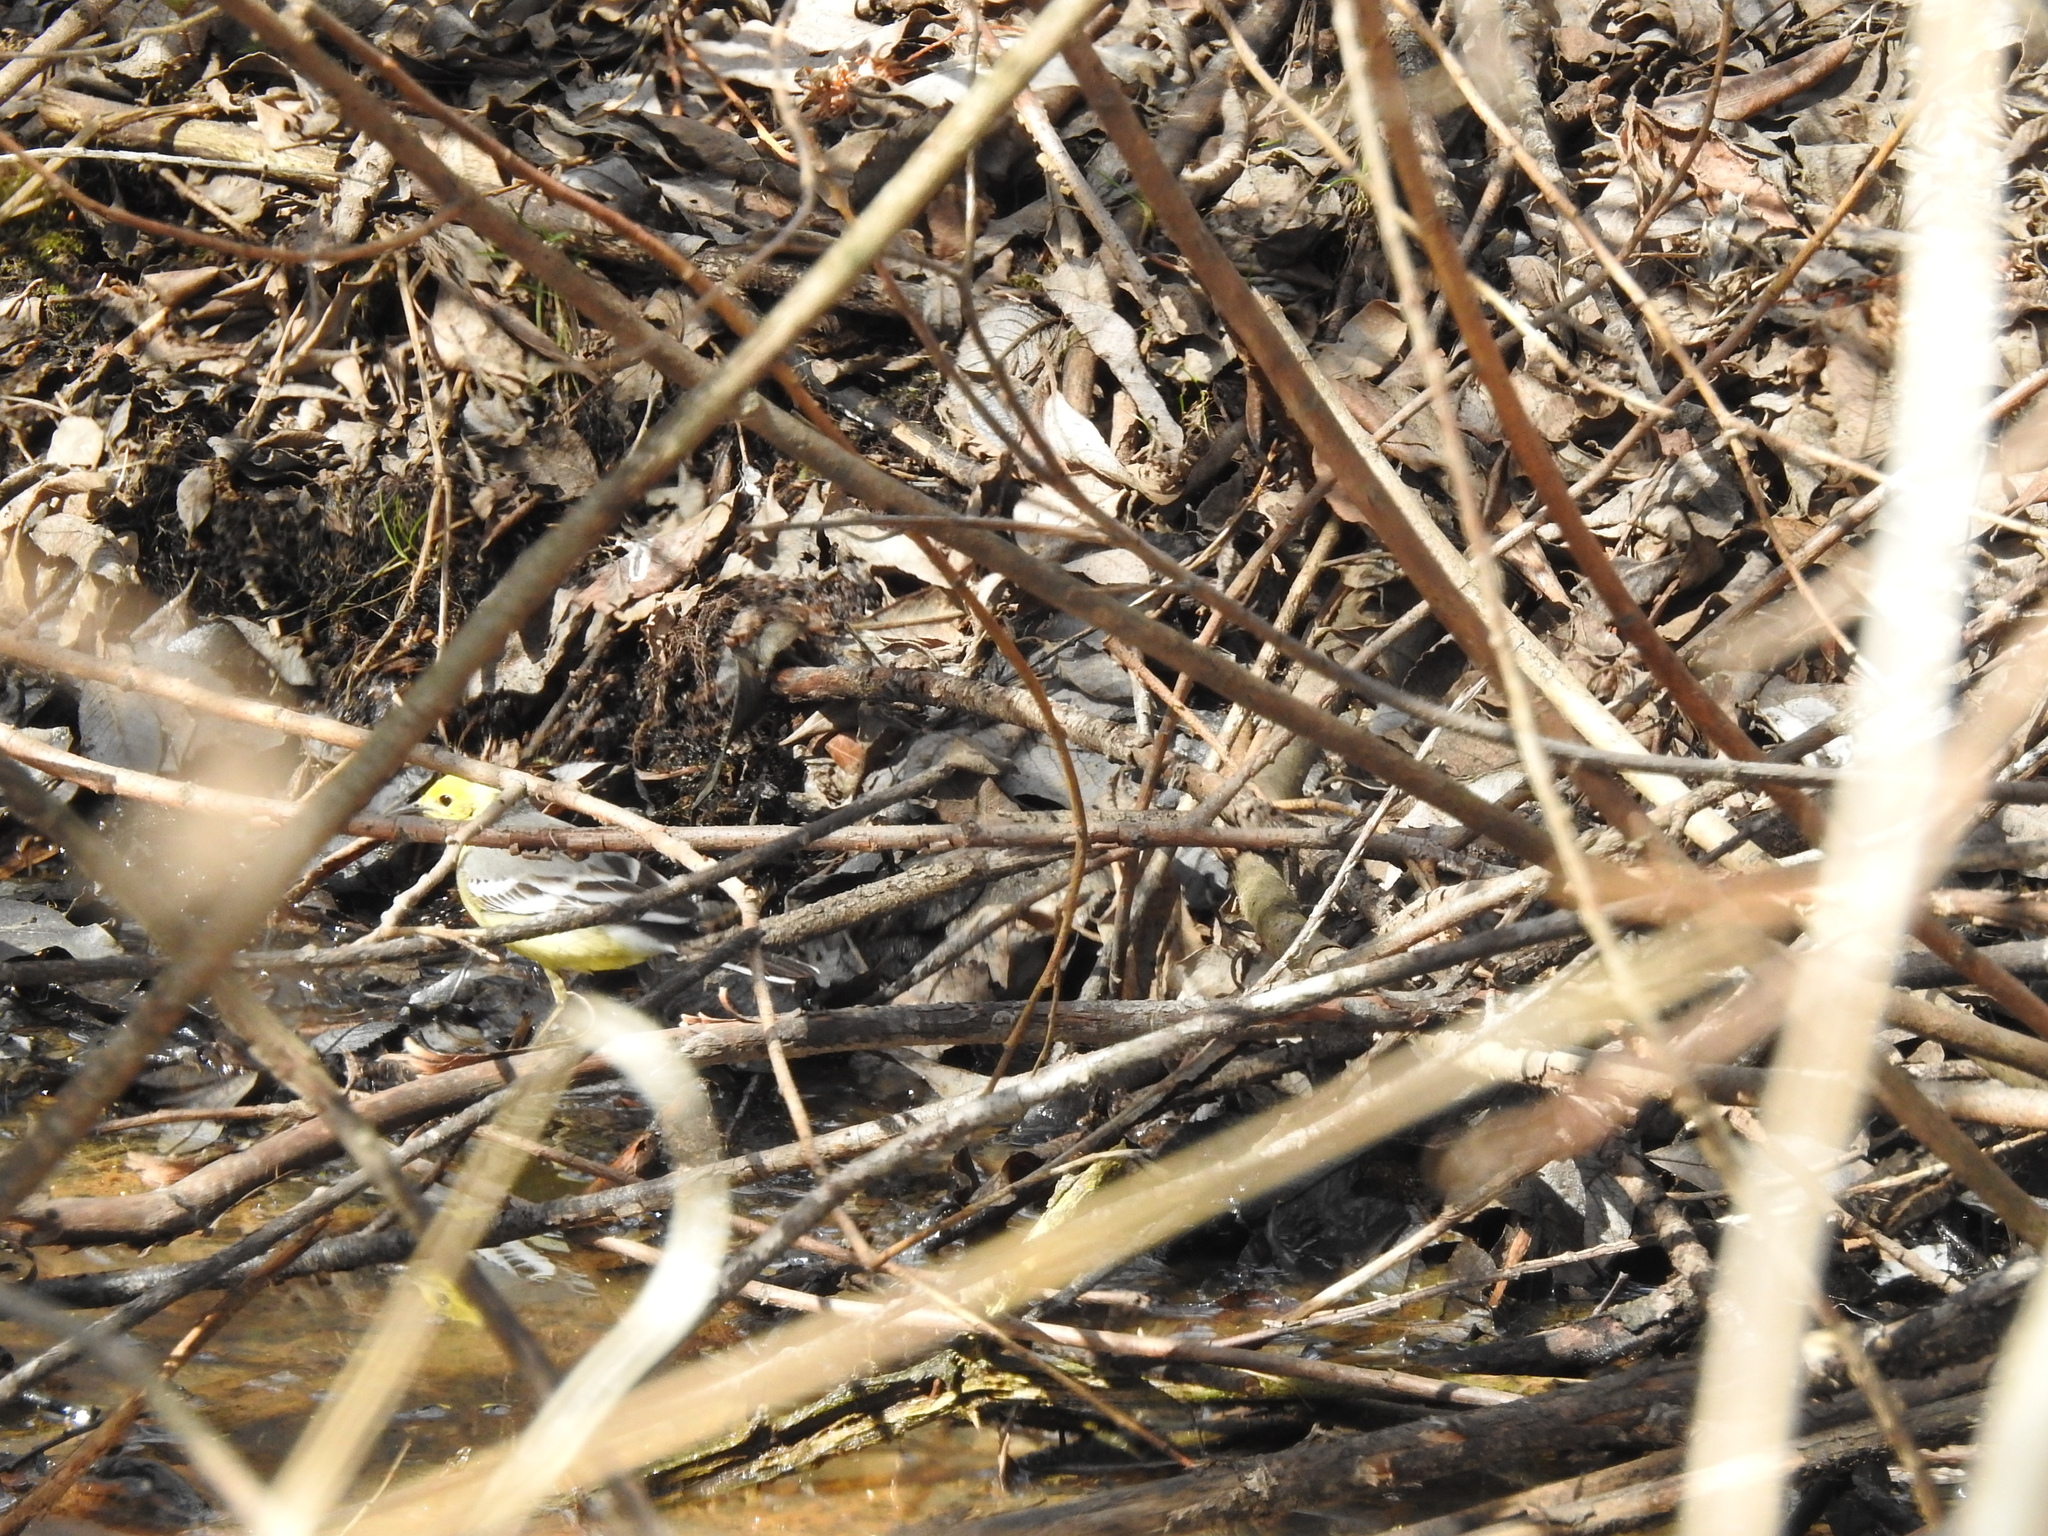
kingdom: Animalia
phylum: Chordata
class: Aves
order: Passeriformes
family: Motacillidae
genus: Motacilla
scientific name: Motacilla citreola
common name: Citrine wagtail
